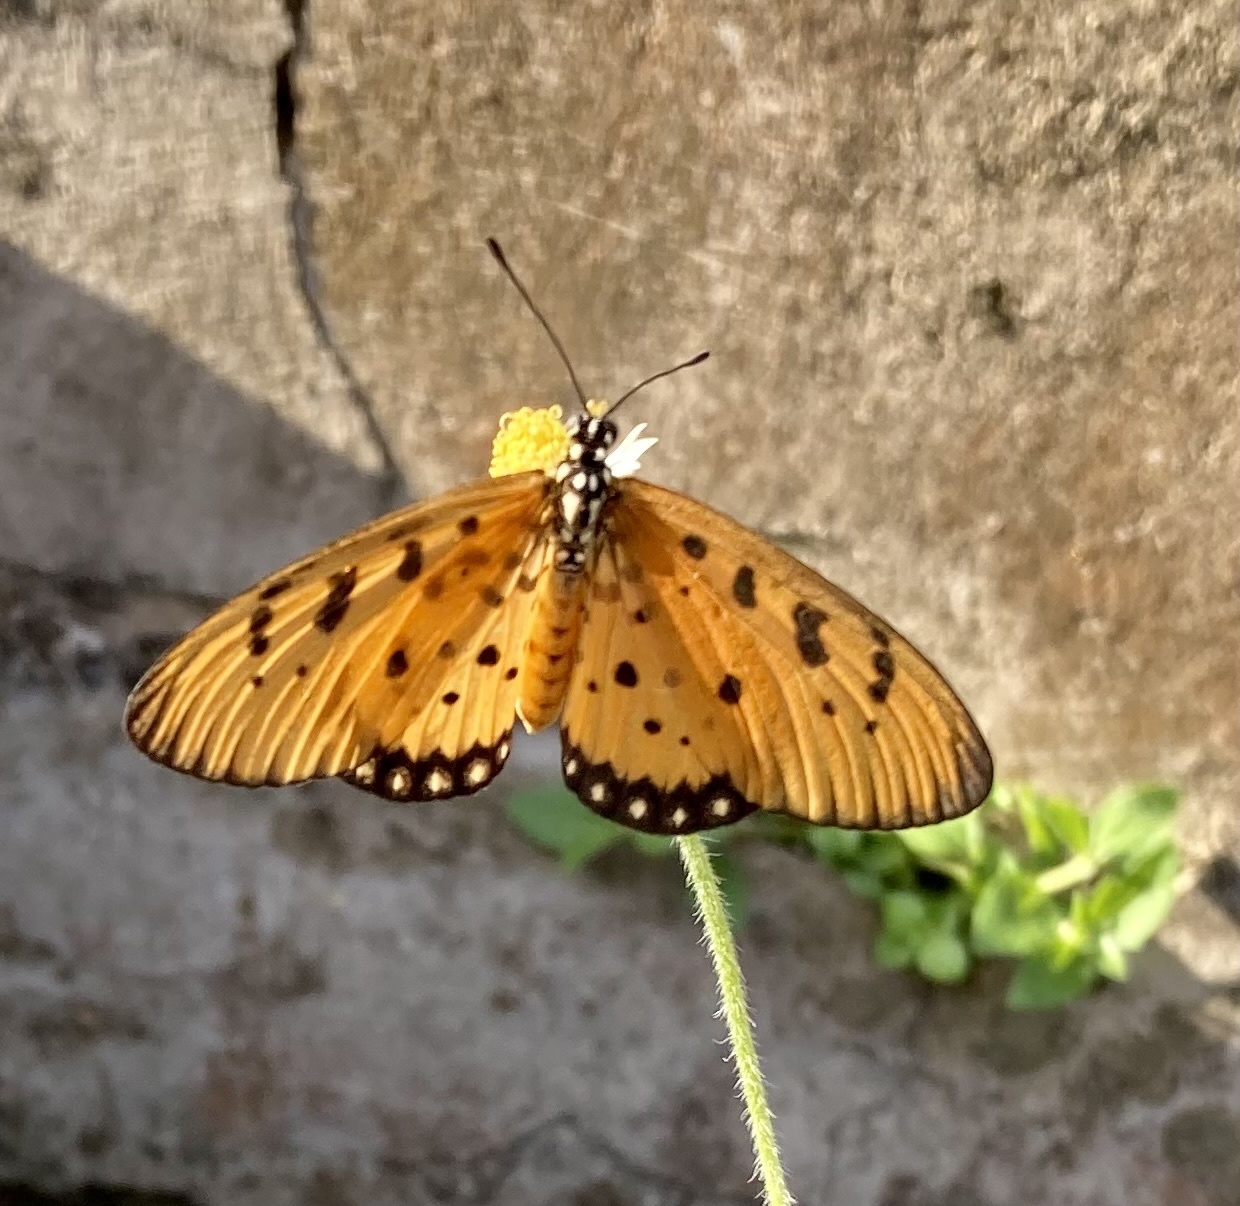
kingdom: Animalia
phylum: Arthropoda
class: Insecta
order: Lepidoptera
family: Nymphalidae
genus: Acraea
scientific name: Acraea terpsicore
